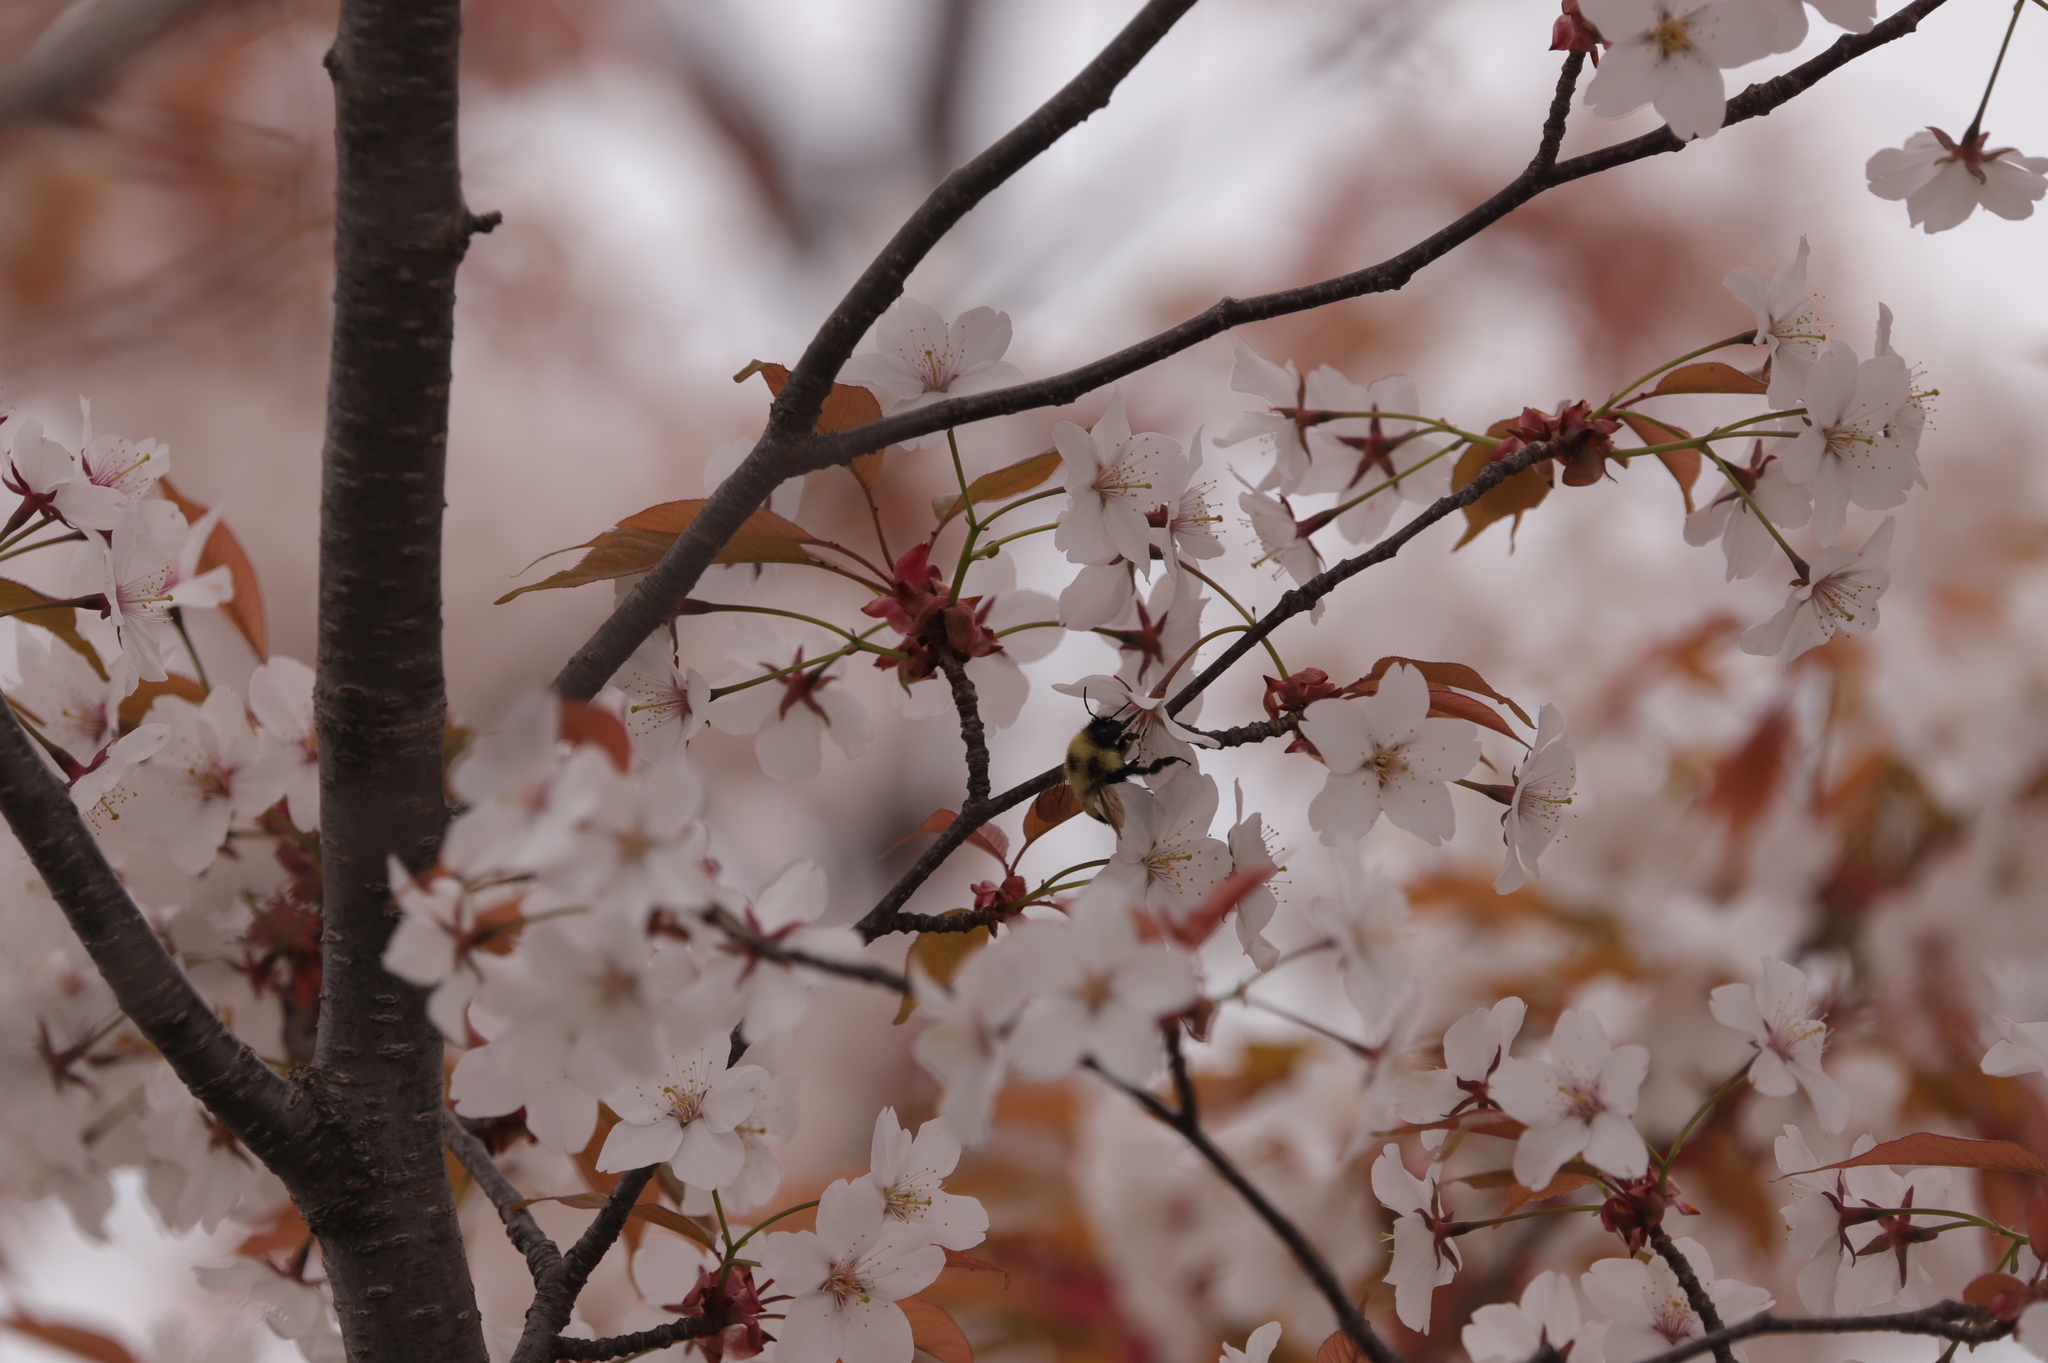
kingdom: Animalia
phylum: Arthropoda
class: Insecta
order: Hymenoptera
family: Apidae
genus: Xylocopa
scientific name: Xylocopa virginica
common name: Carpenter bee
